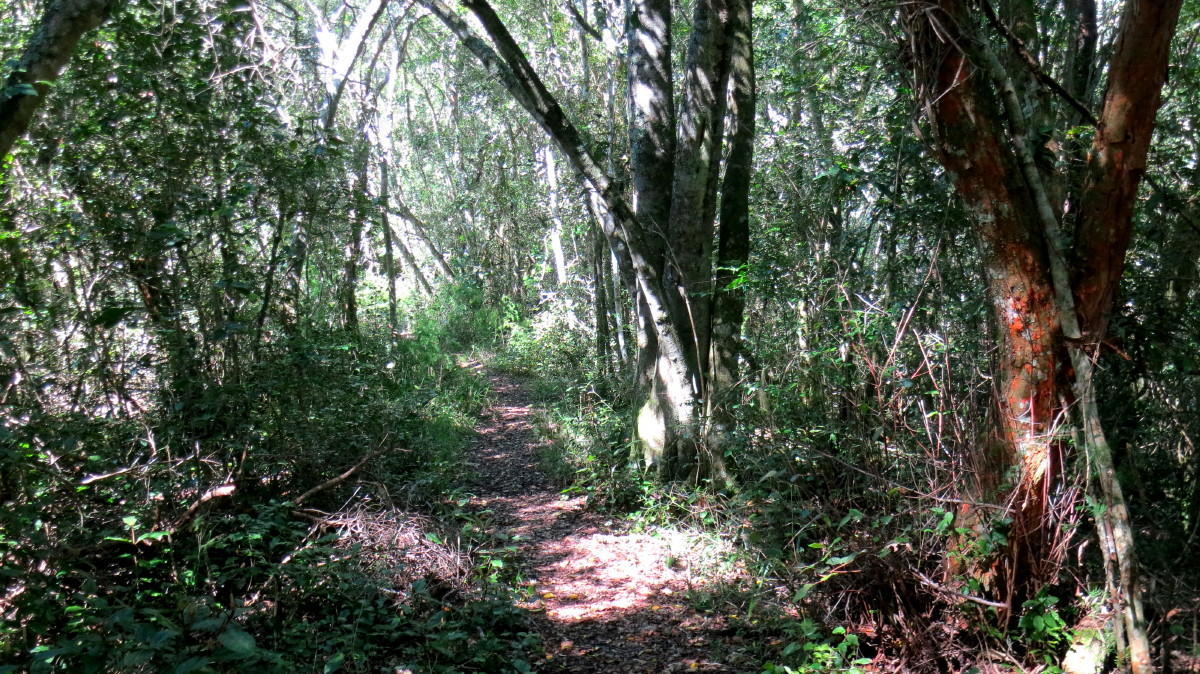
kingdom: Plantae
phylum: Tracheophyta
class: Magnoliopsida
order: Celastrales
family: Celastraceae
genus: Cassine
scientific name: Cassine peragua
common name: Cape saffron
